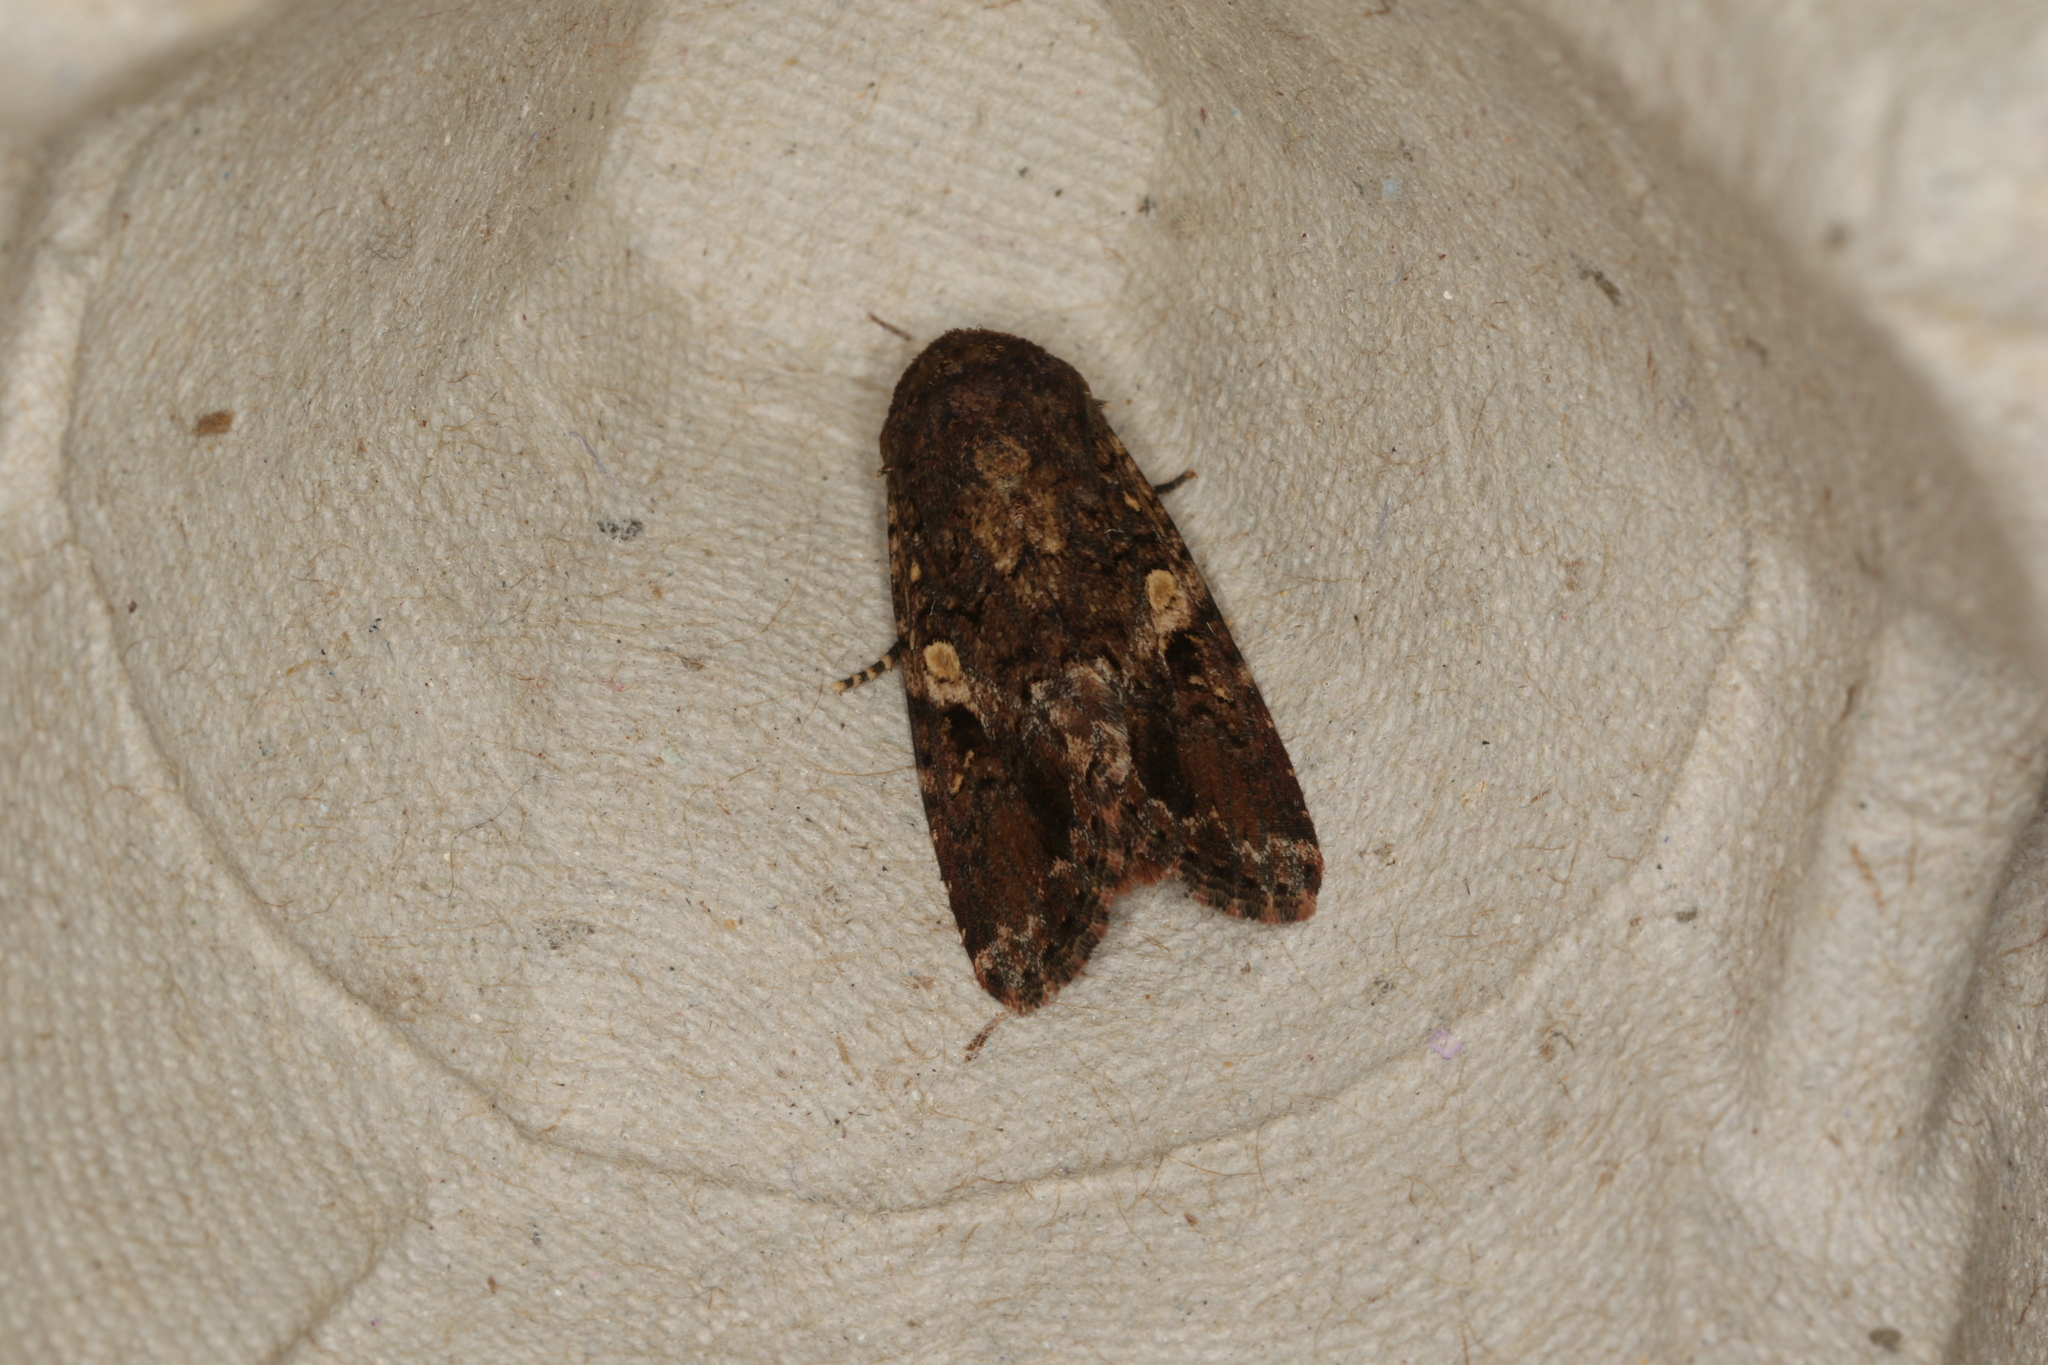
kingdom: Animalia
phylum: Arthropoda
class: Insecta
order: Lepidoptera
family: Noctuidae
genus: Spodoptera
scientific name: Spodoptera mauritia
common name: Lawn armyworm
